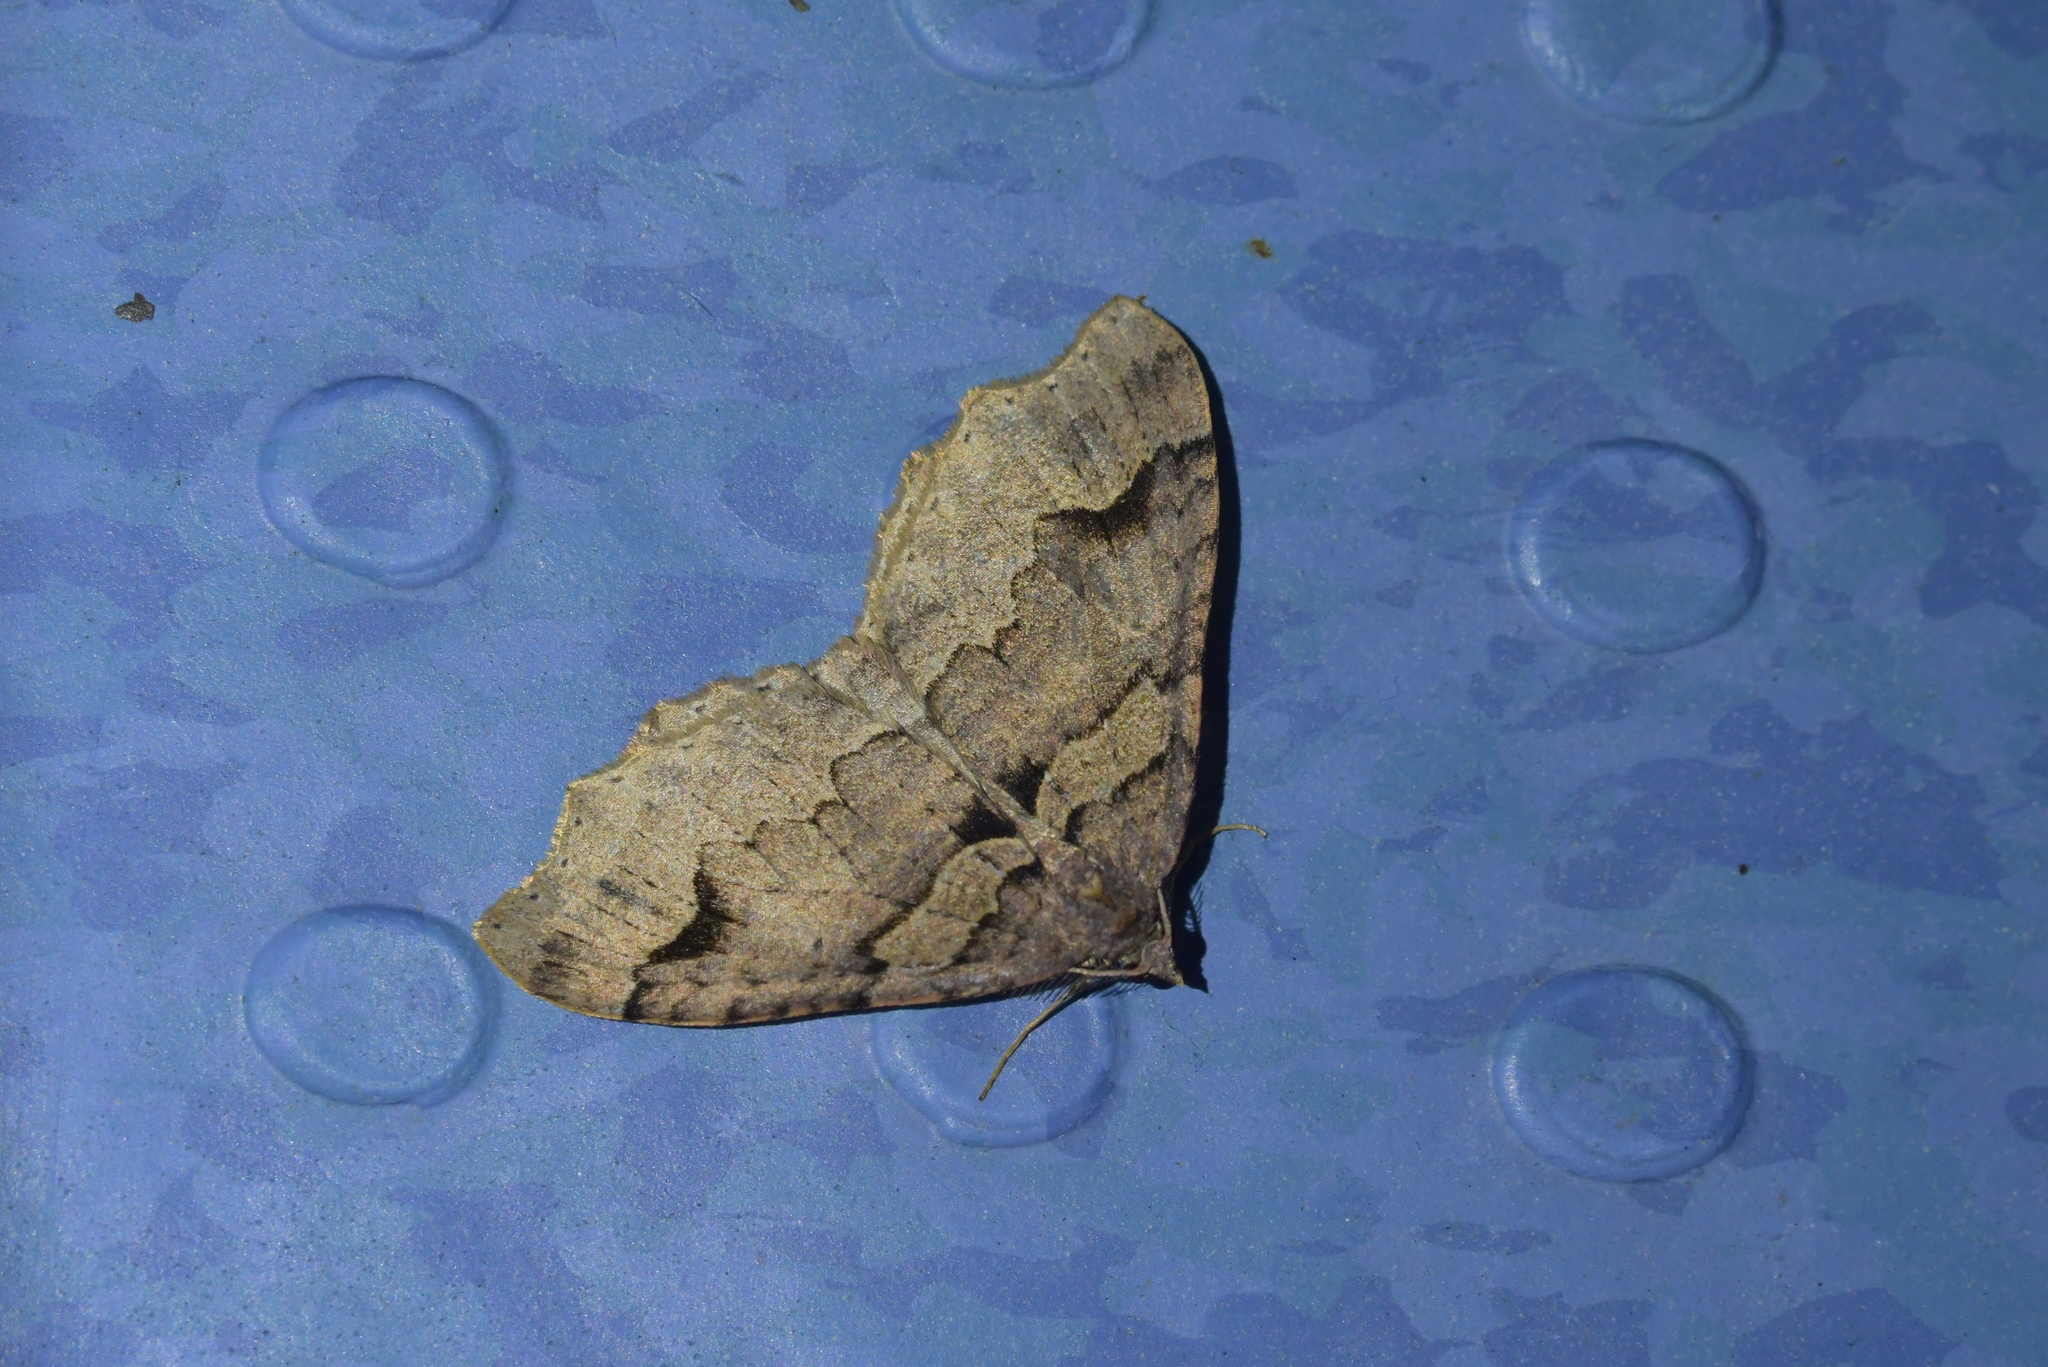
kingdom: Animalia
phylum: Arthropoda
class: Insecta
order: Lepidoptera
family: Geometridae
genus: Austrocidaria
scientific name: Austrocidaria parora
